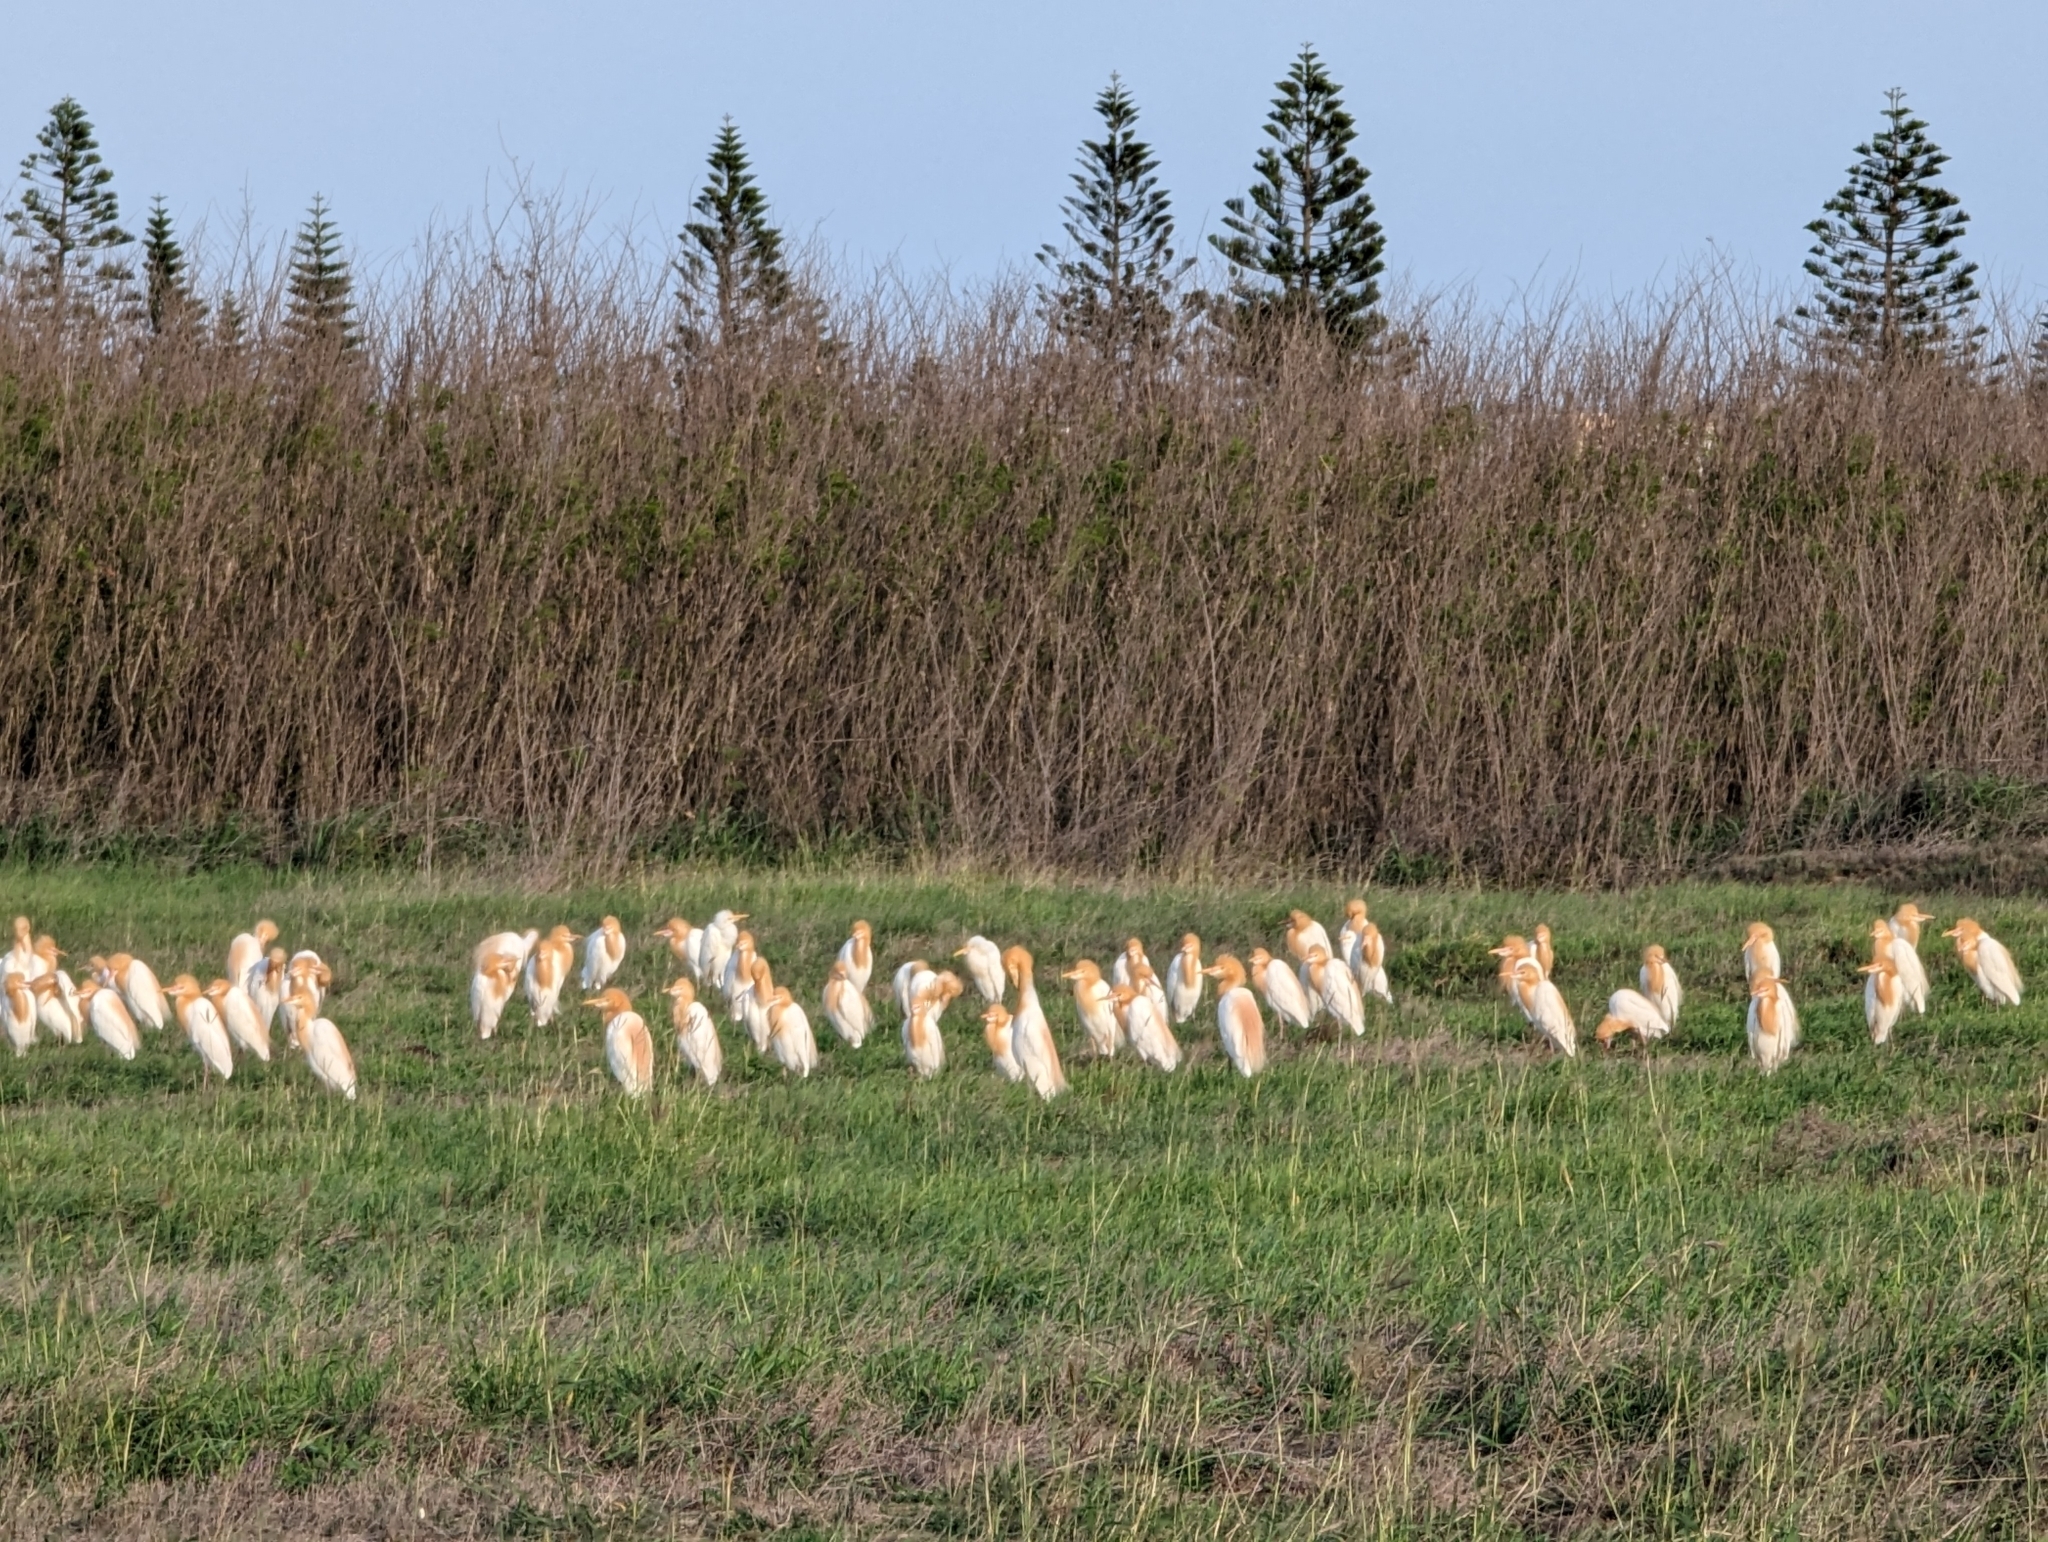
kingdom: Animalia
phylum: Chordata
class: Aves
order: Pelecaniformes
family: Ardeidae
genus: Bubulcus
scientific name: Bubulcus coromandus
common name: Eastern cattle egret
